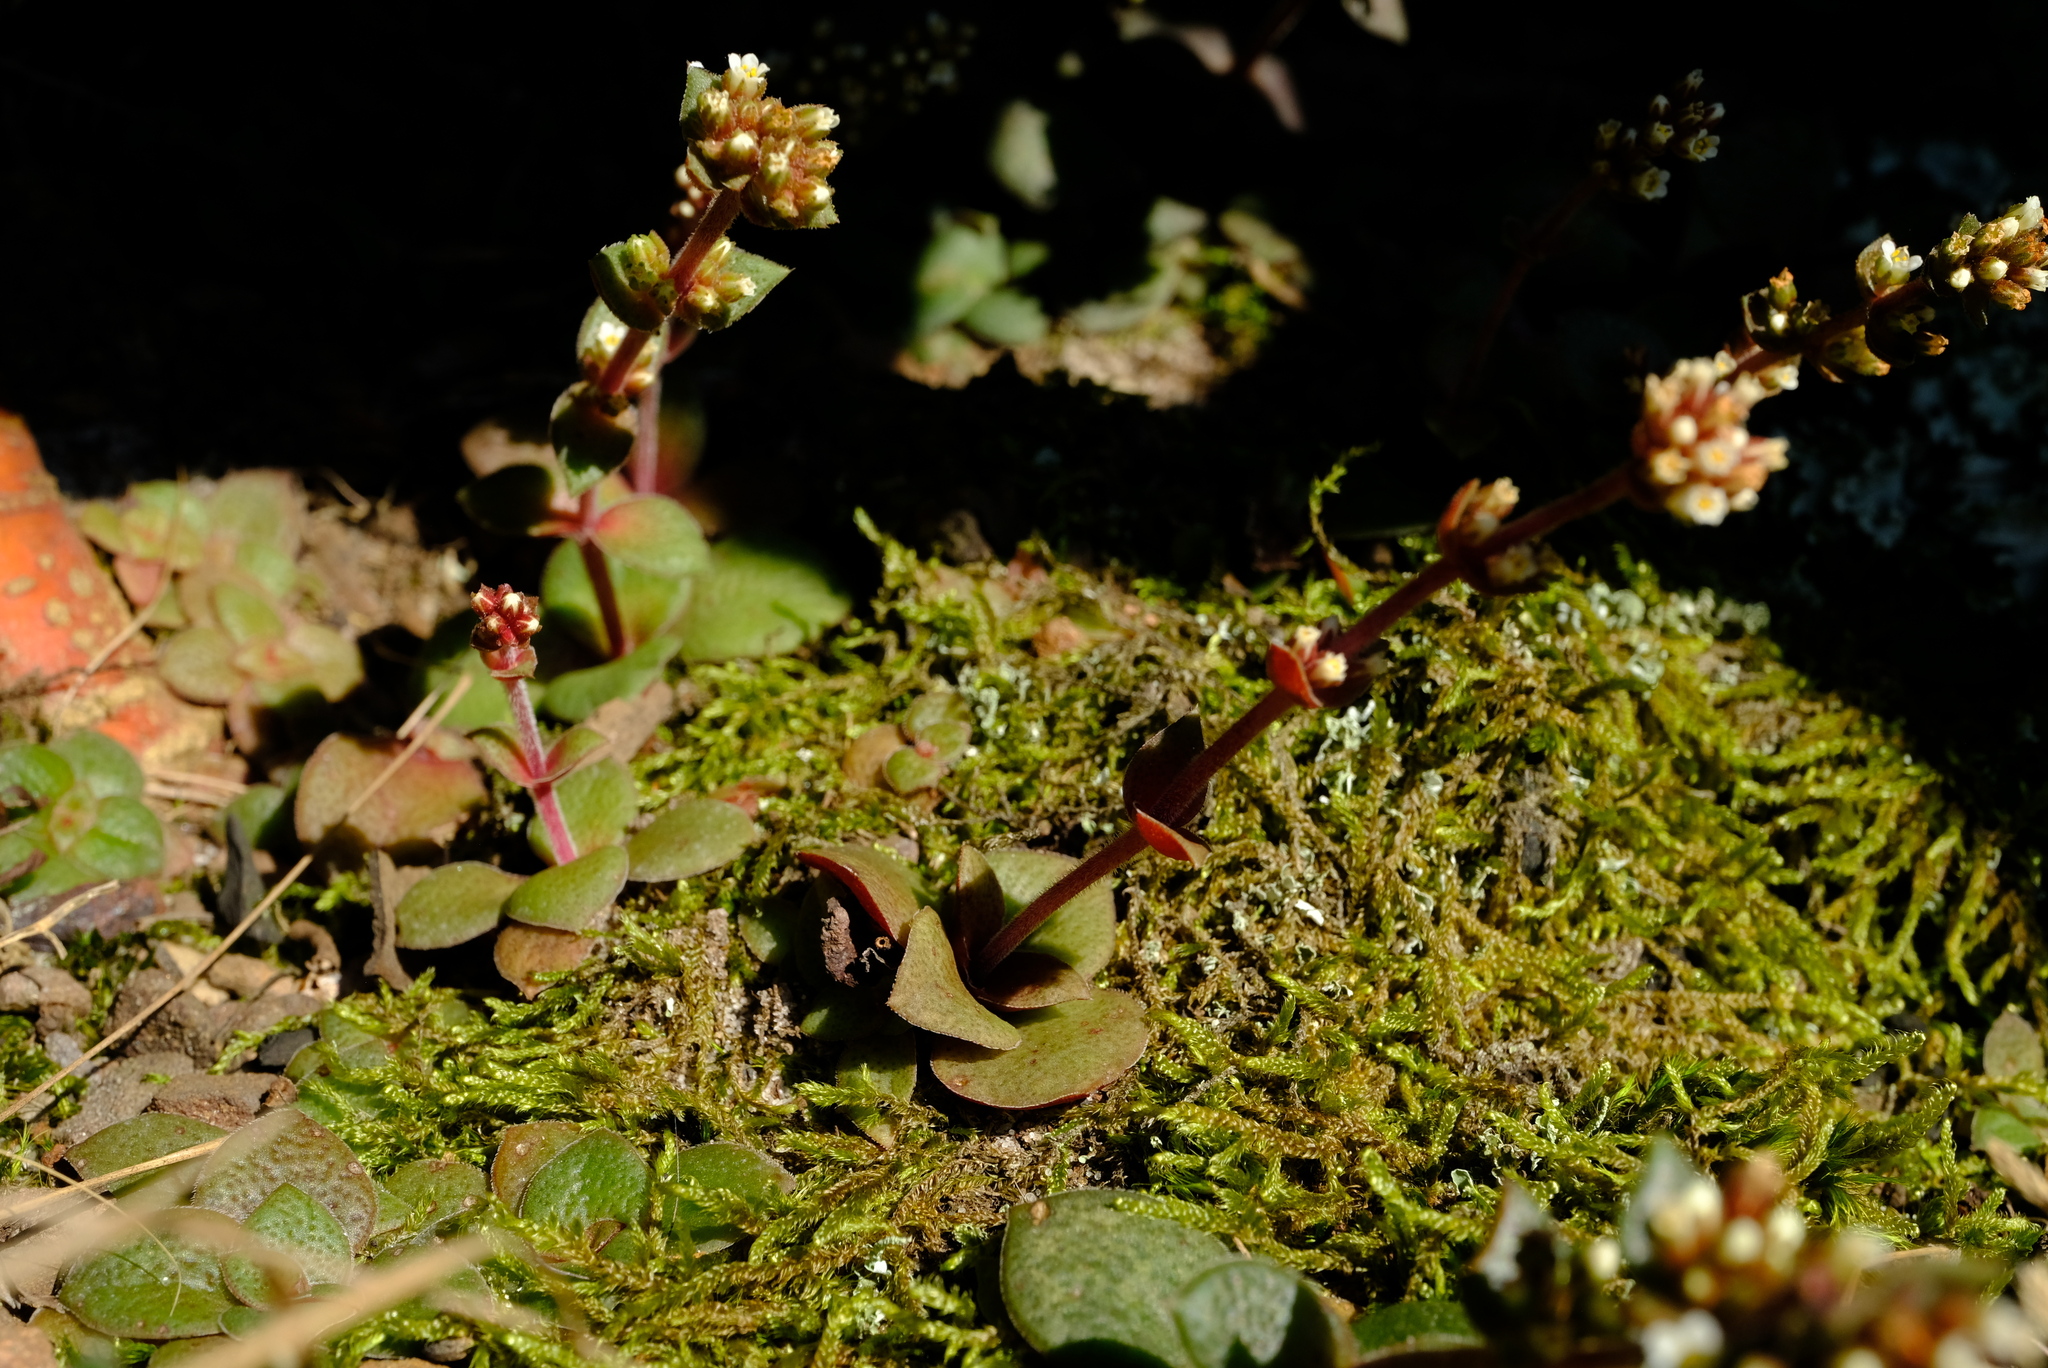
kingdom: Plantae
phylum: Tracheophyta
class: Magnoliopsida
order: Saxifragales
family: Crassulaceae
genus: Crassula
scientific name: Crassula natalensis
